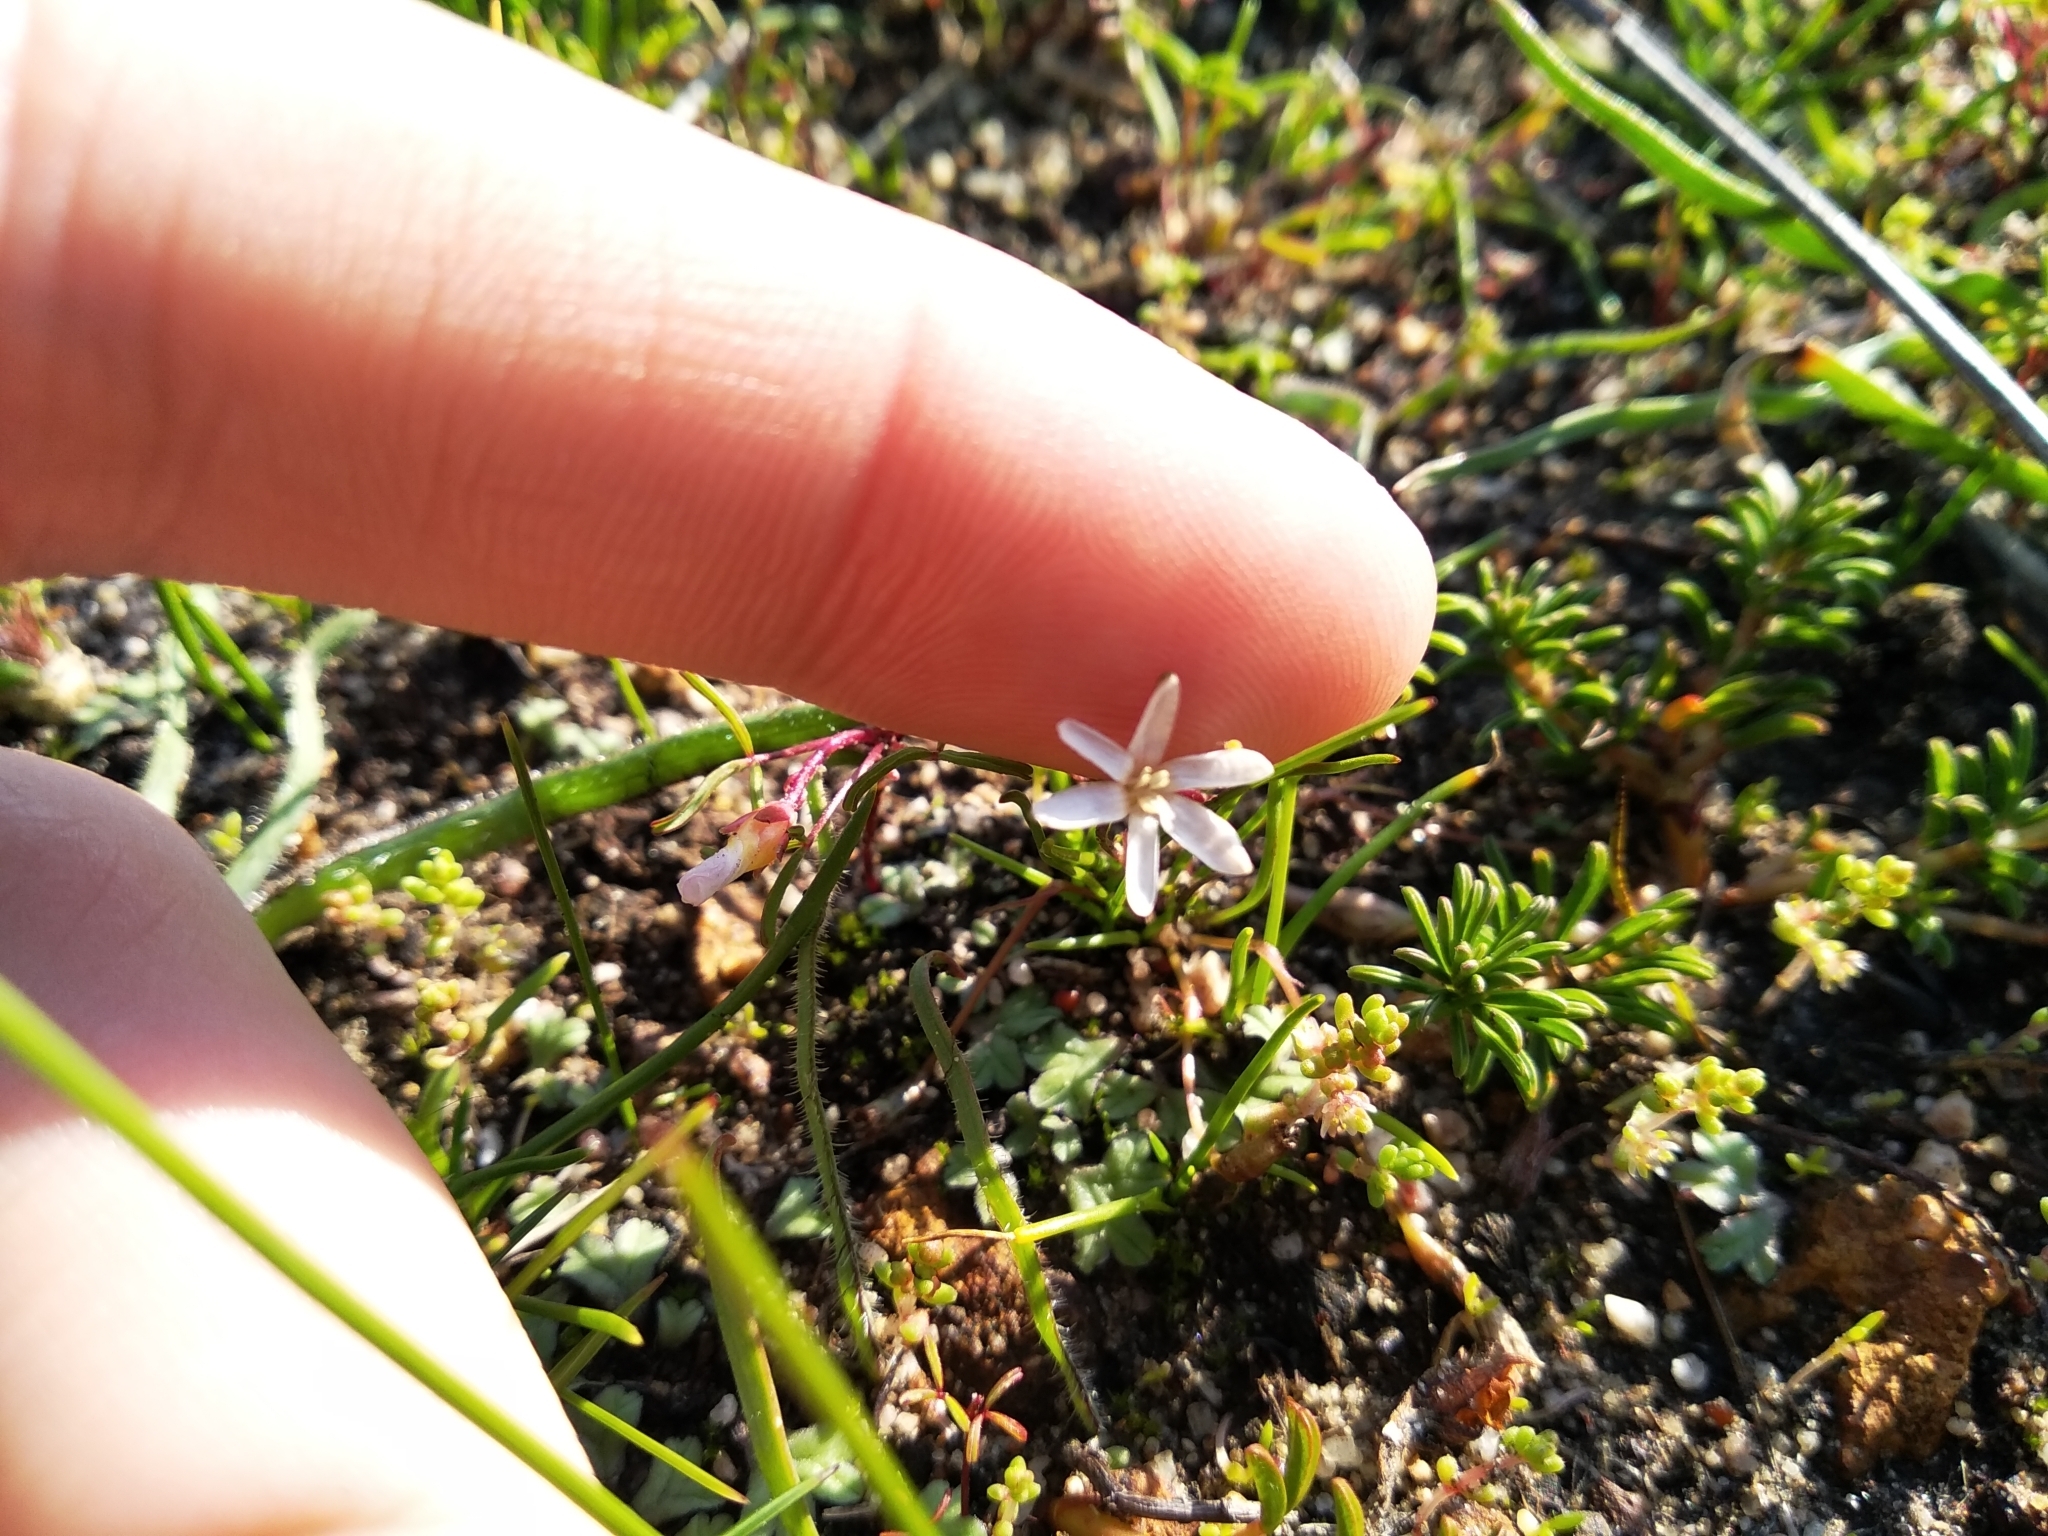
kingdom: Plantae
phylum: Tracheophyta
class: Liliopsida
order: Asparagales
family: Hypoxidaceae
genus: Pauridia
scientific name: Pauridia minuta
